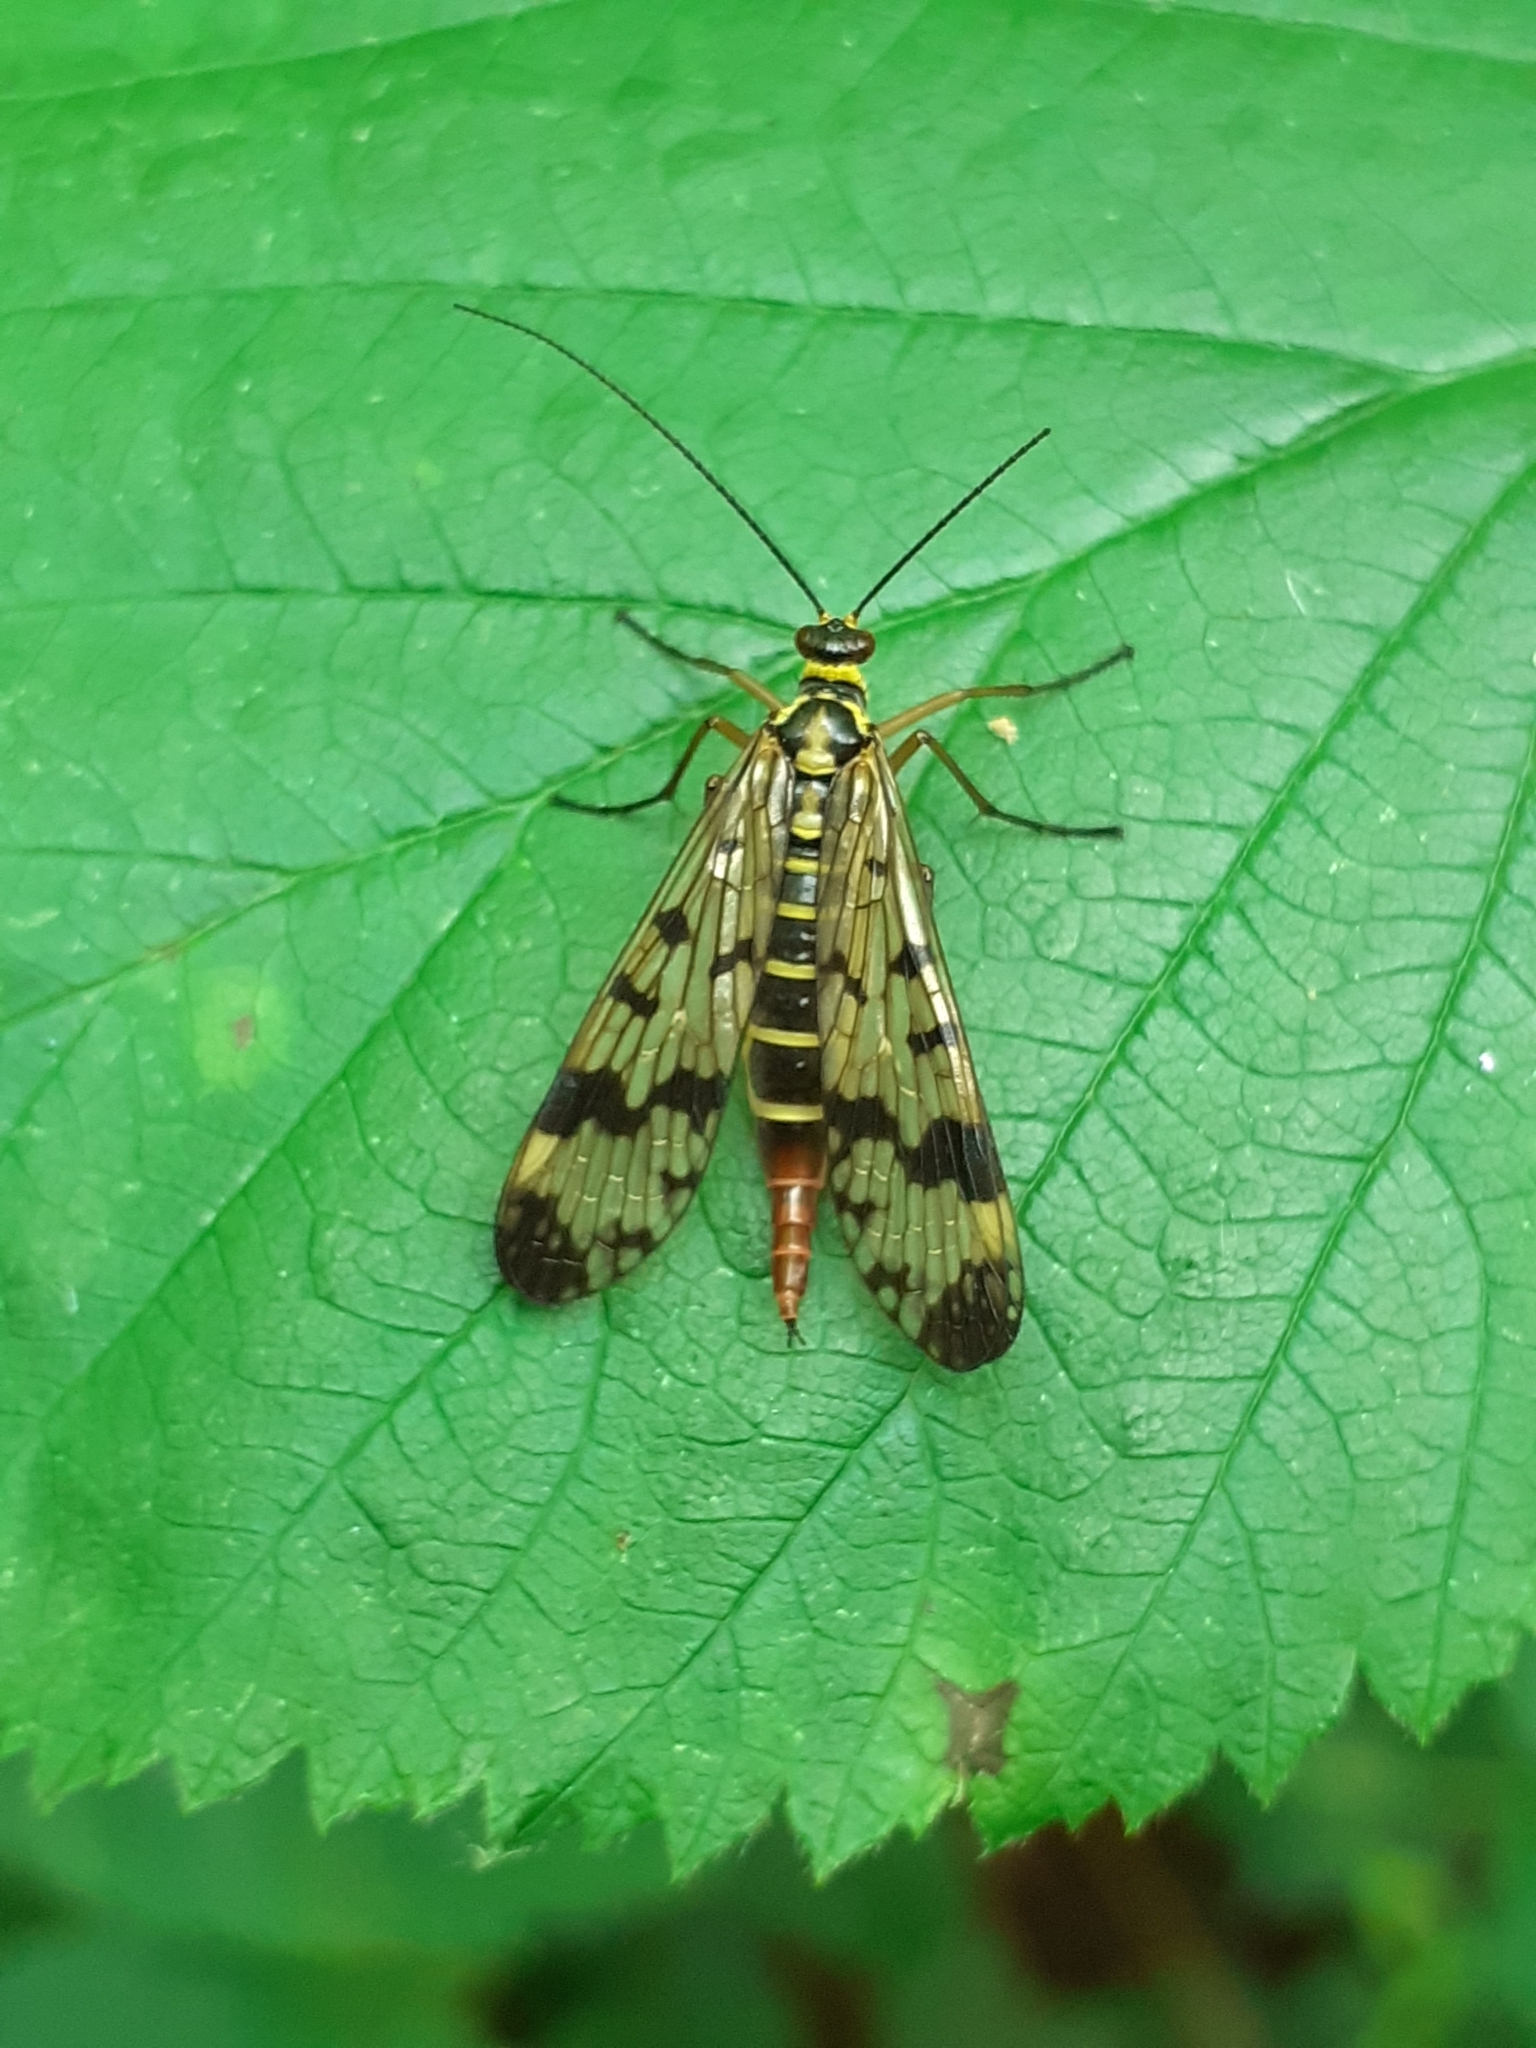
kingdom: Animalia
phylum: Arthropoda
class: Insecta
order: Mecoptera
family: Panorpidae
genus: Panorpa
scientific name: Panorpa communis
